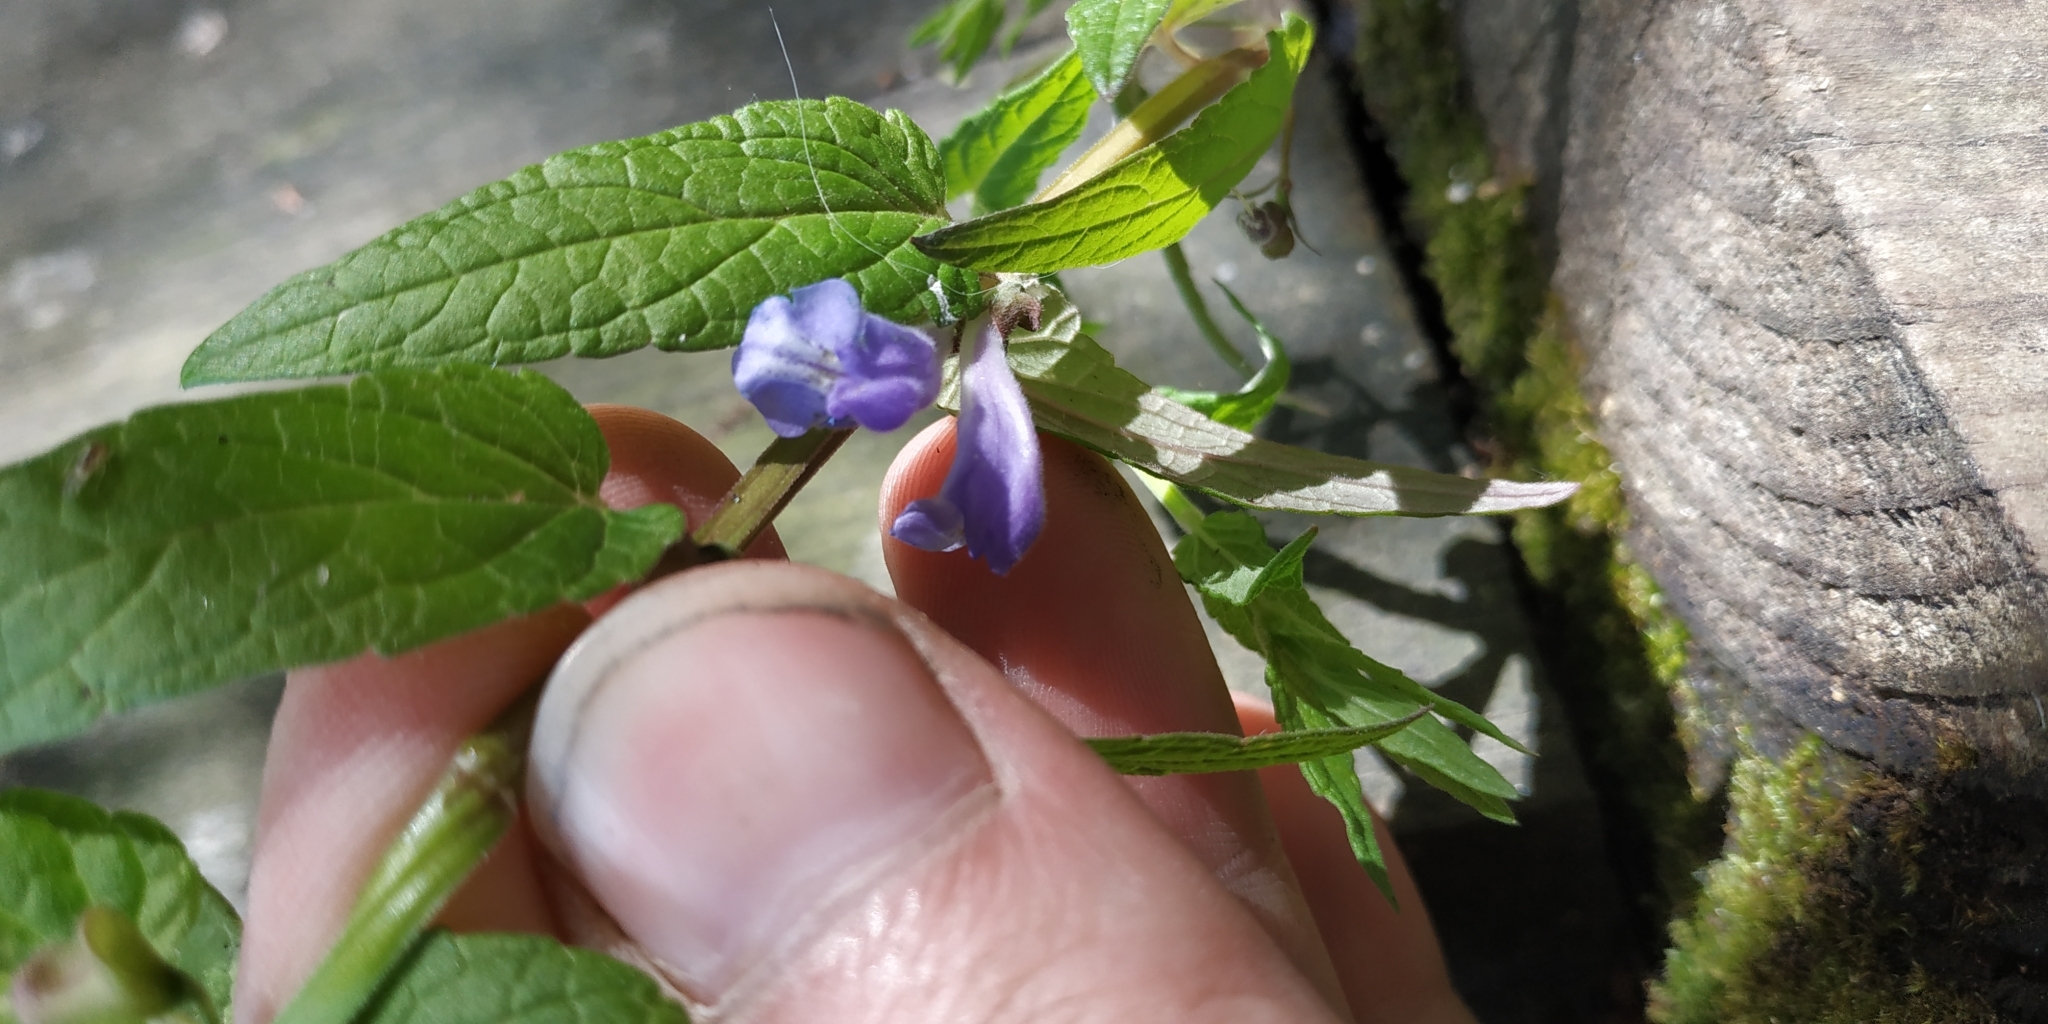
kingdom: Plantae
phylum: Tracheophyta
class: Magnoliopsida
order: Lamiales
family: Lamiaceae
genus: Scutellaria
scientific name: Scutellaria galericulata
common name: Skullcap
